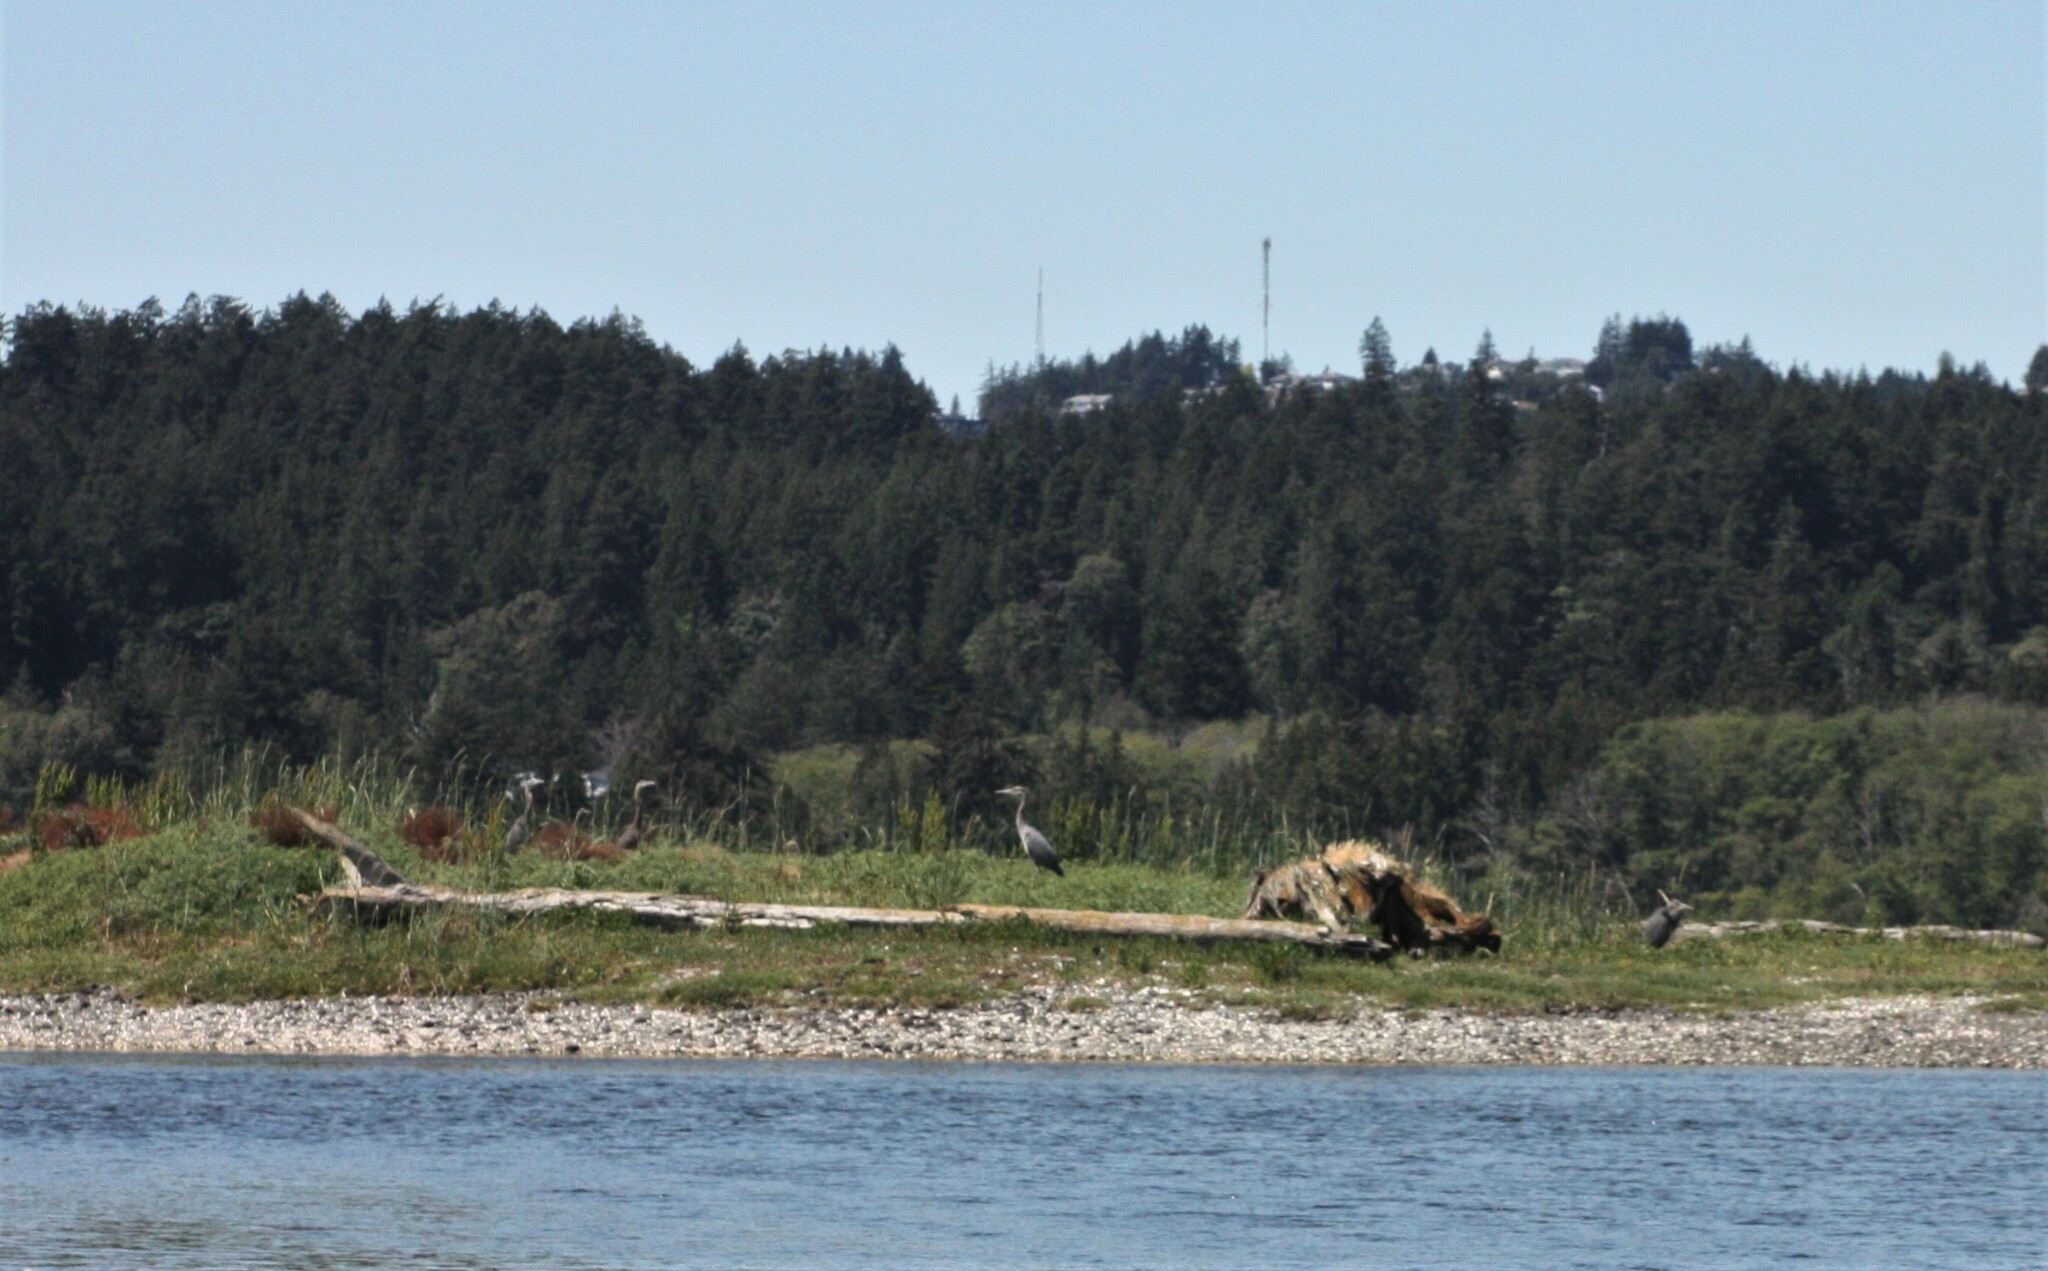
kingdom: Animalia
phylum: Chordata
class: Aves
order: Pelecaniformes
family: Ardeidae
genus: Ardea
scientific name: Ardea herodias
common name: Great blue heron
